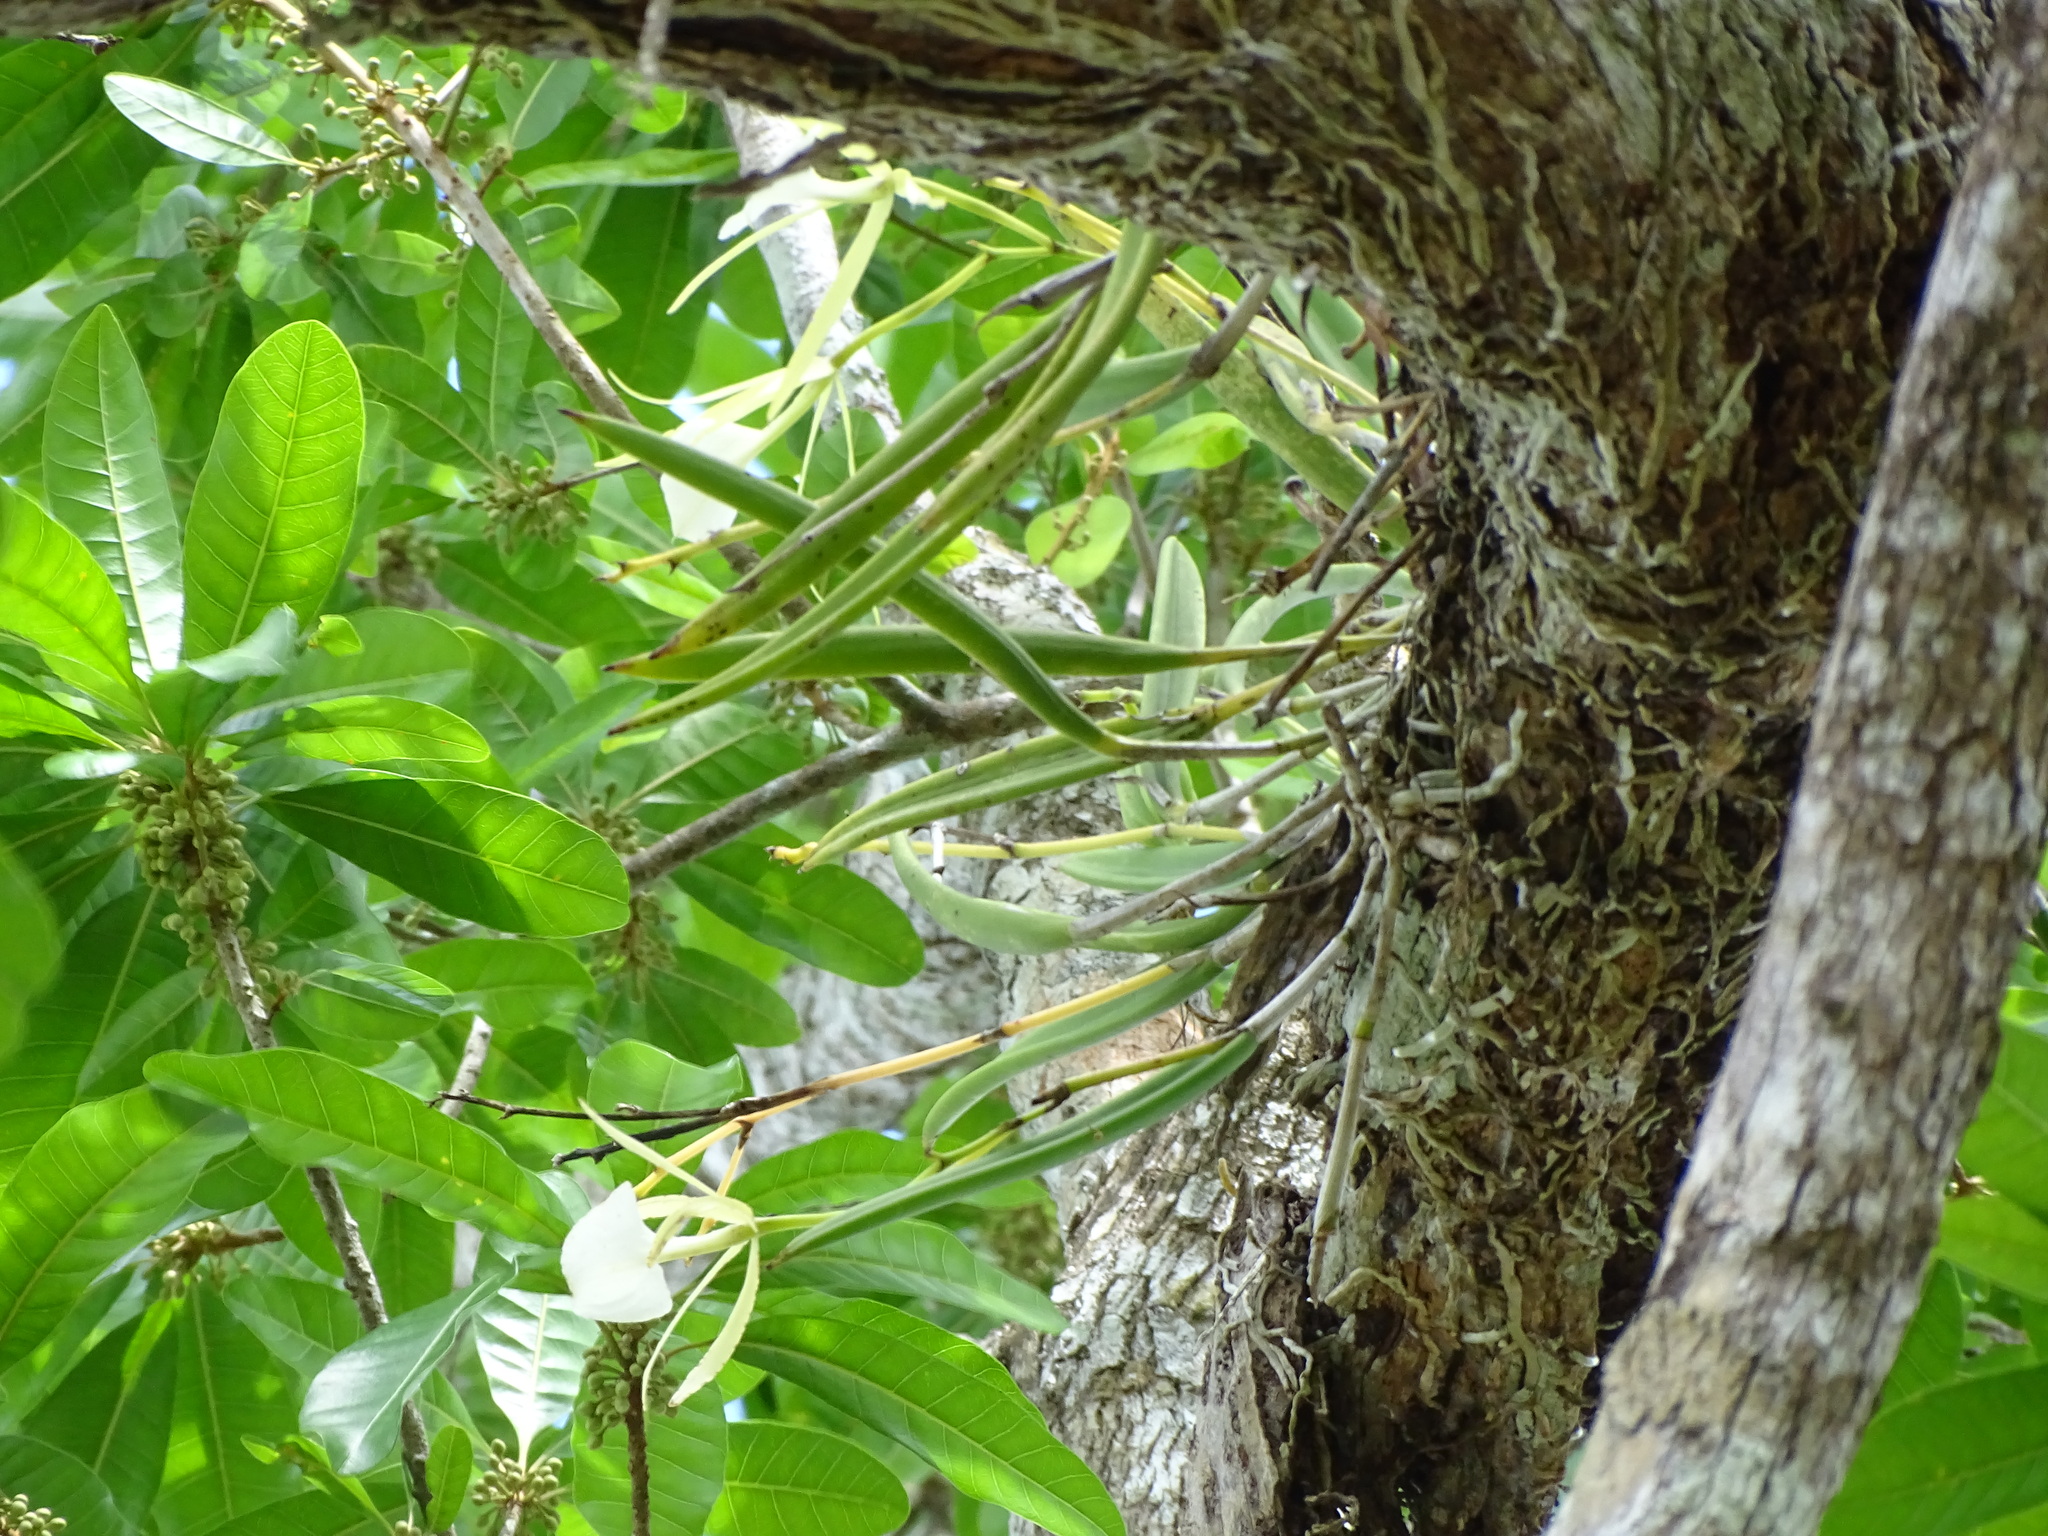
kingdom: Plantae
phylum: Tracheophyta
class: Liliopsida
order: Asparagales
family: Orchidaceae
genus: Brassavola
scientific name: Brassavola nodosa
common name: Lady of the night
